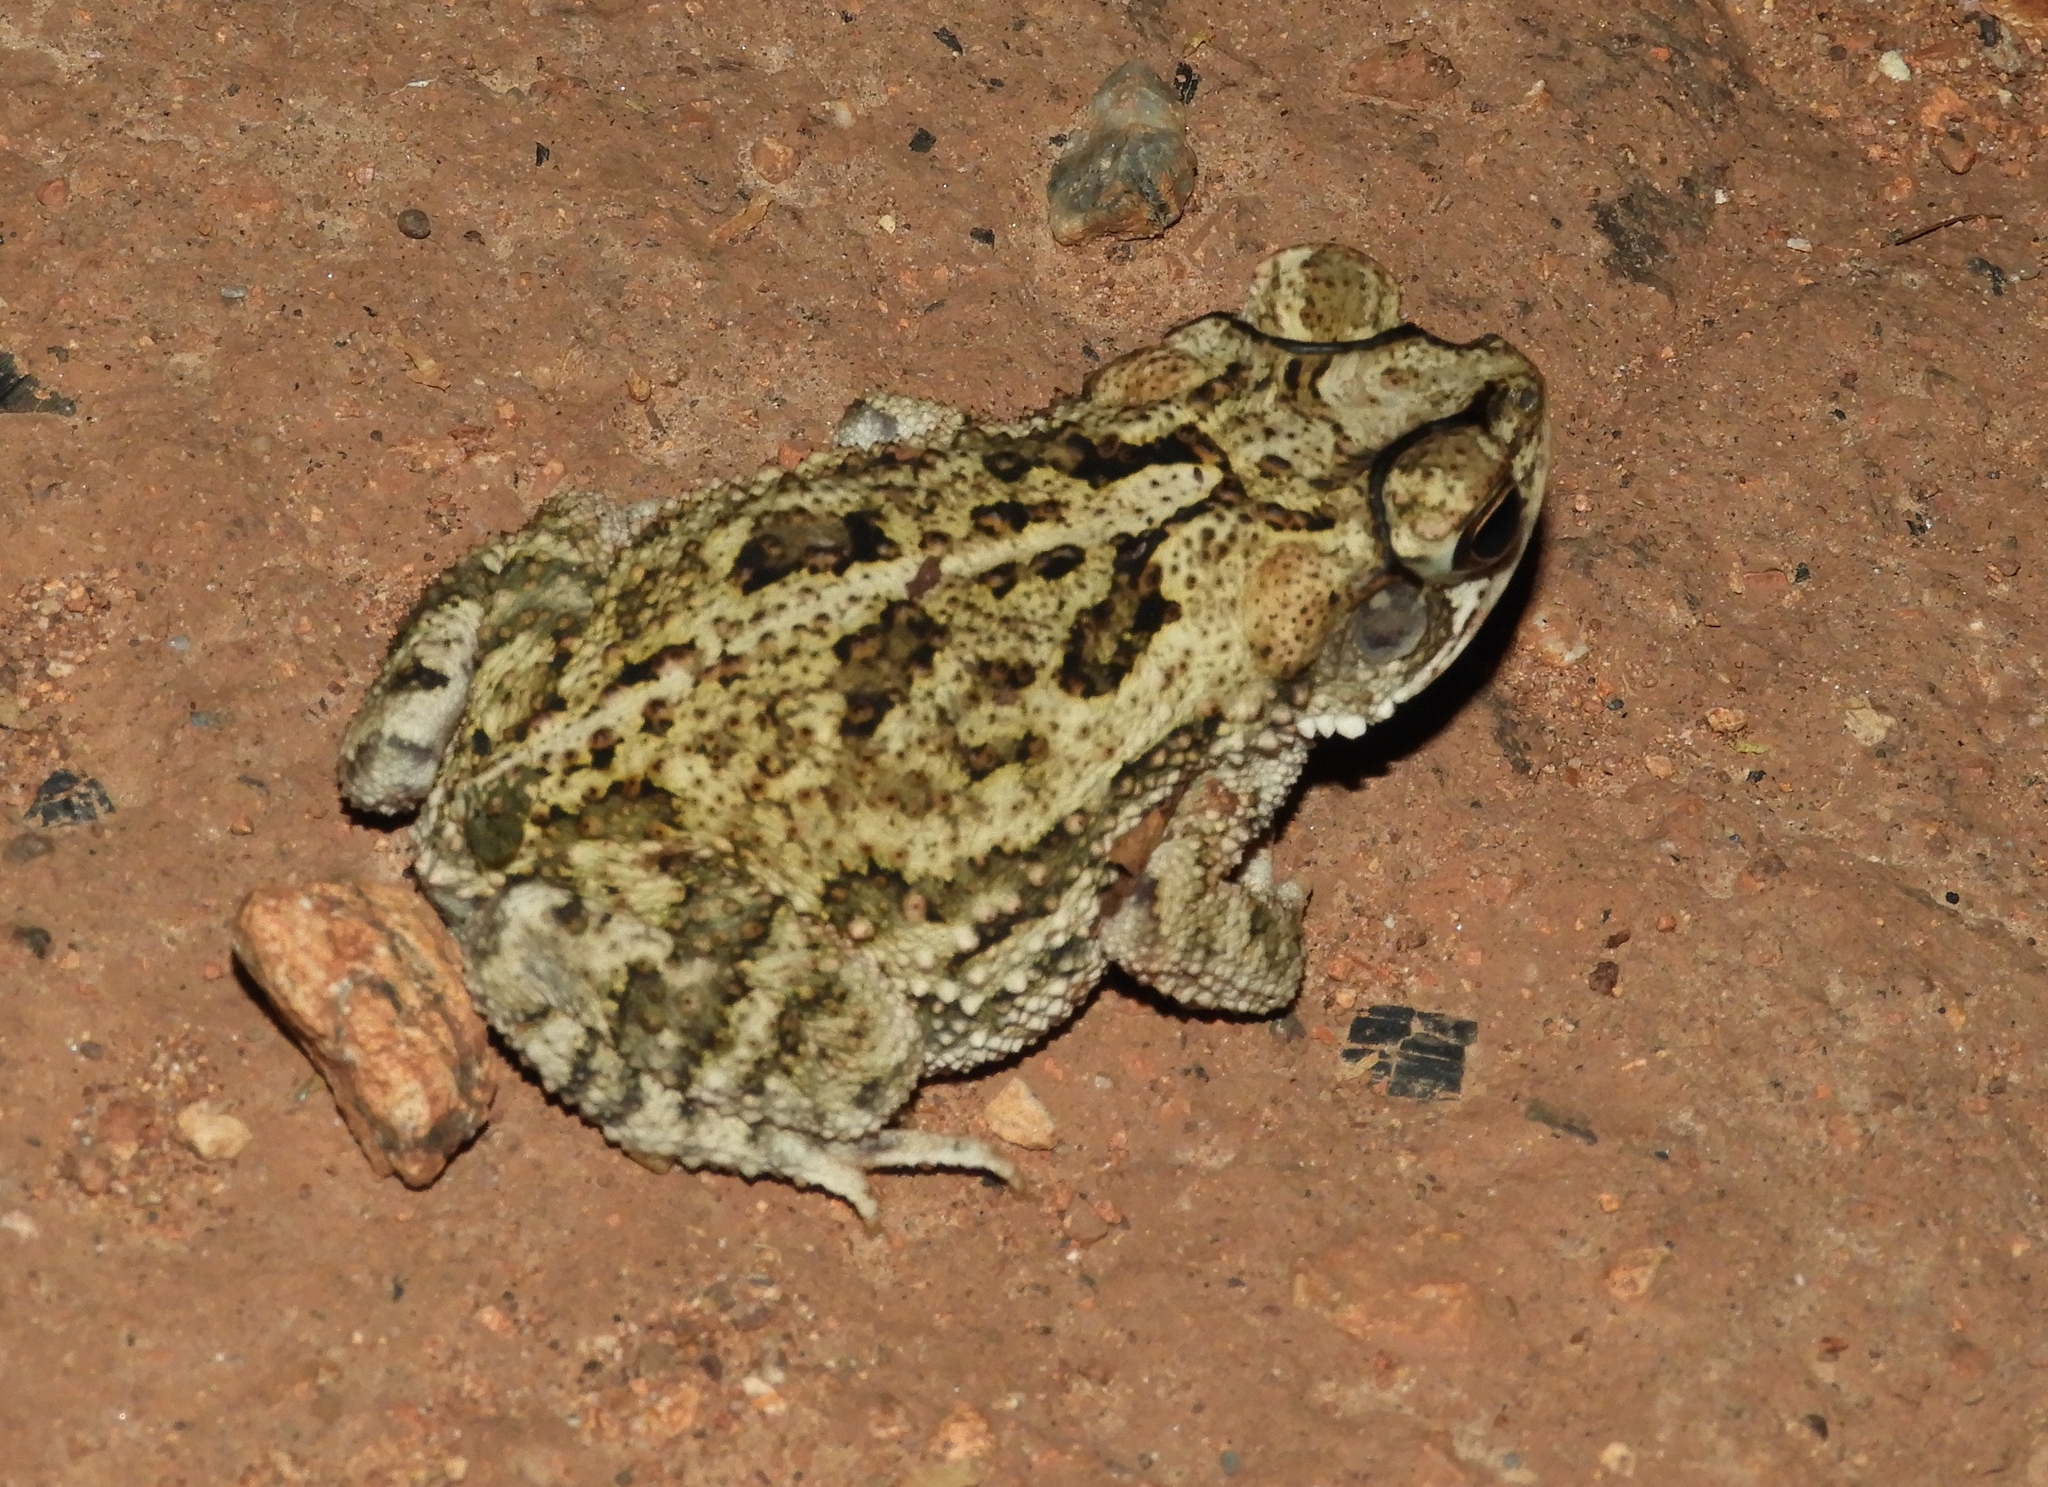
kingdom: Animalia
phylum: Chordata
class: Amphibia
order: Anura
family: Bufonidae
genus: Incilius
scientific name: Incilius mazatlanensis
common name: Sinaloa toad
